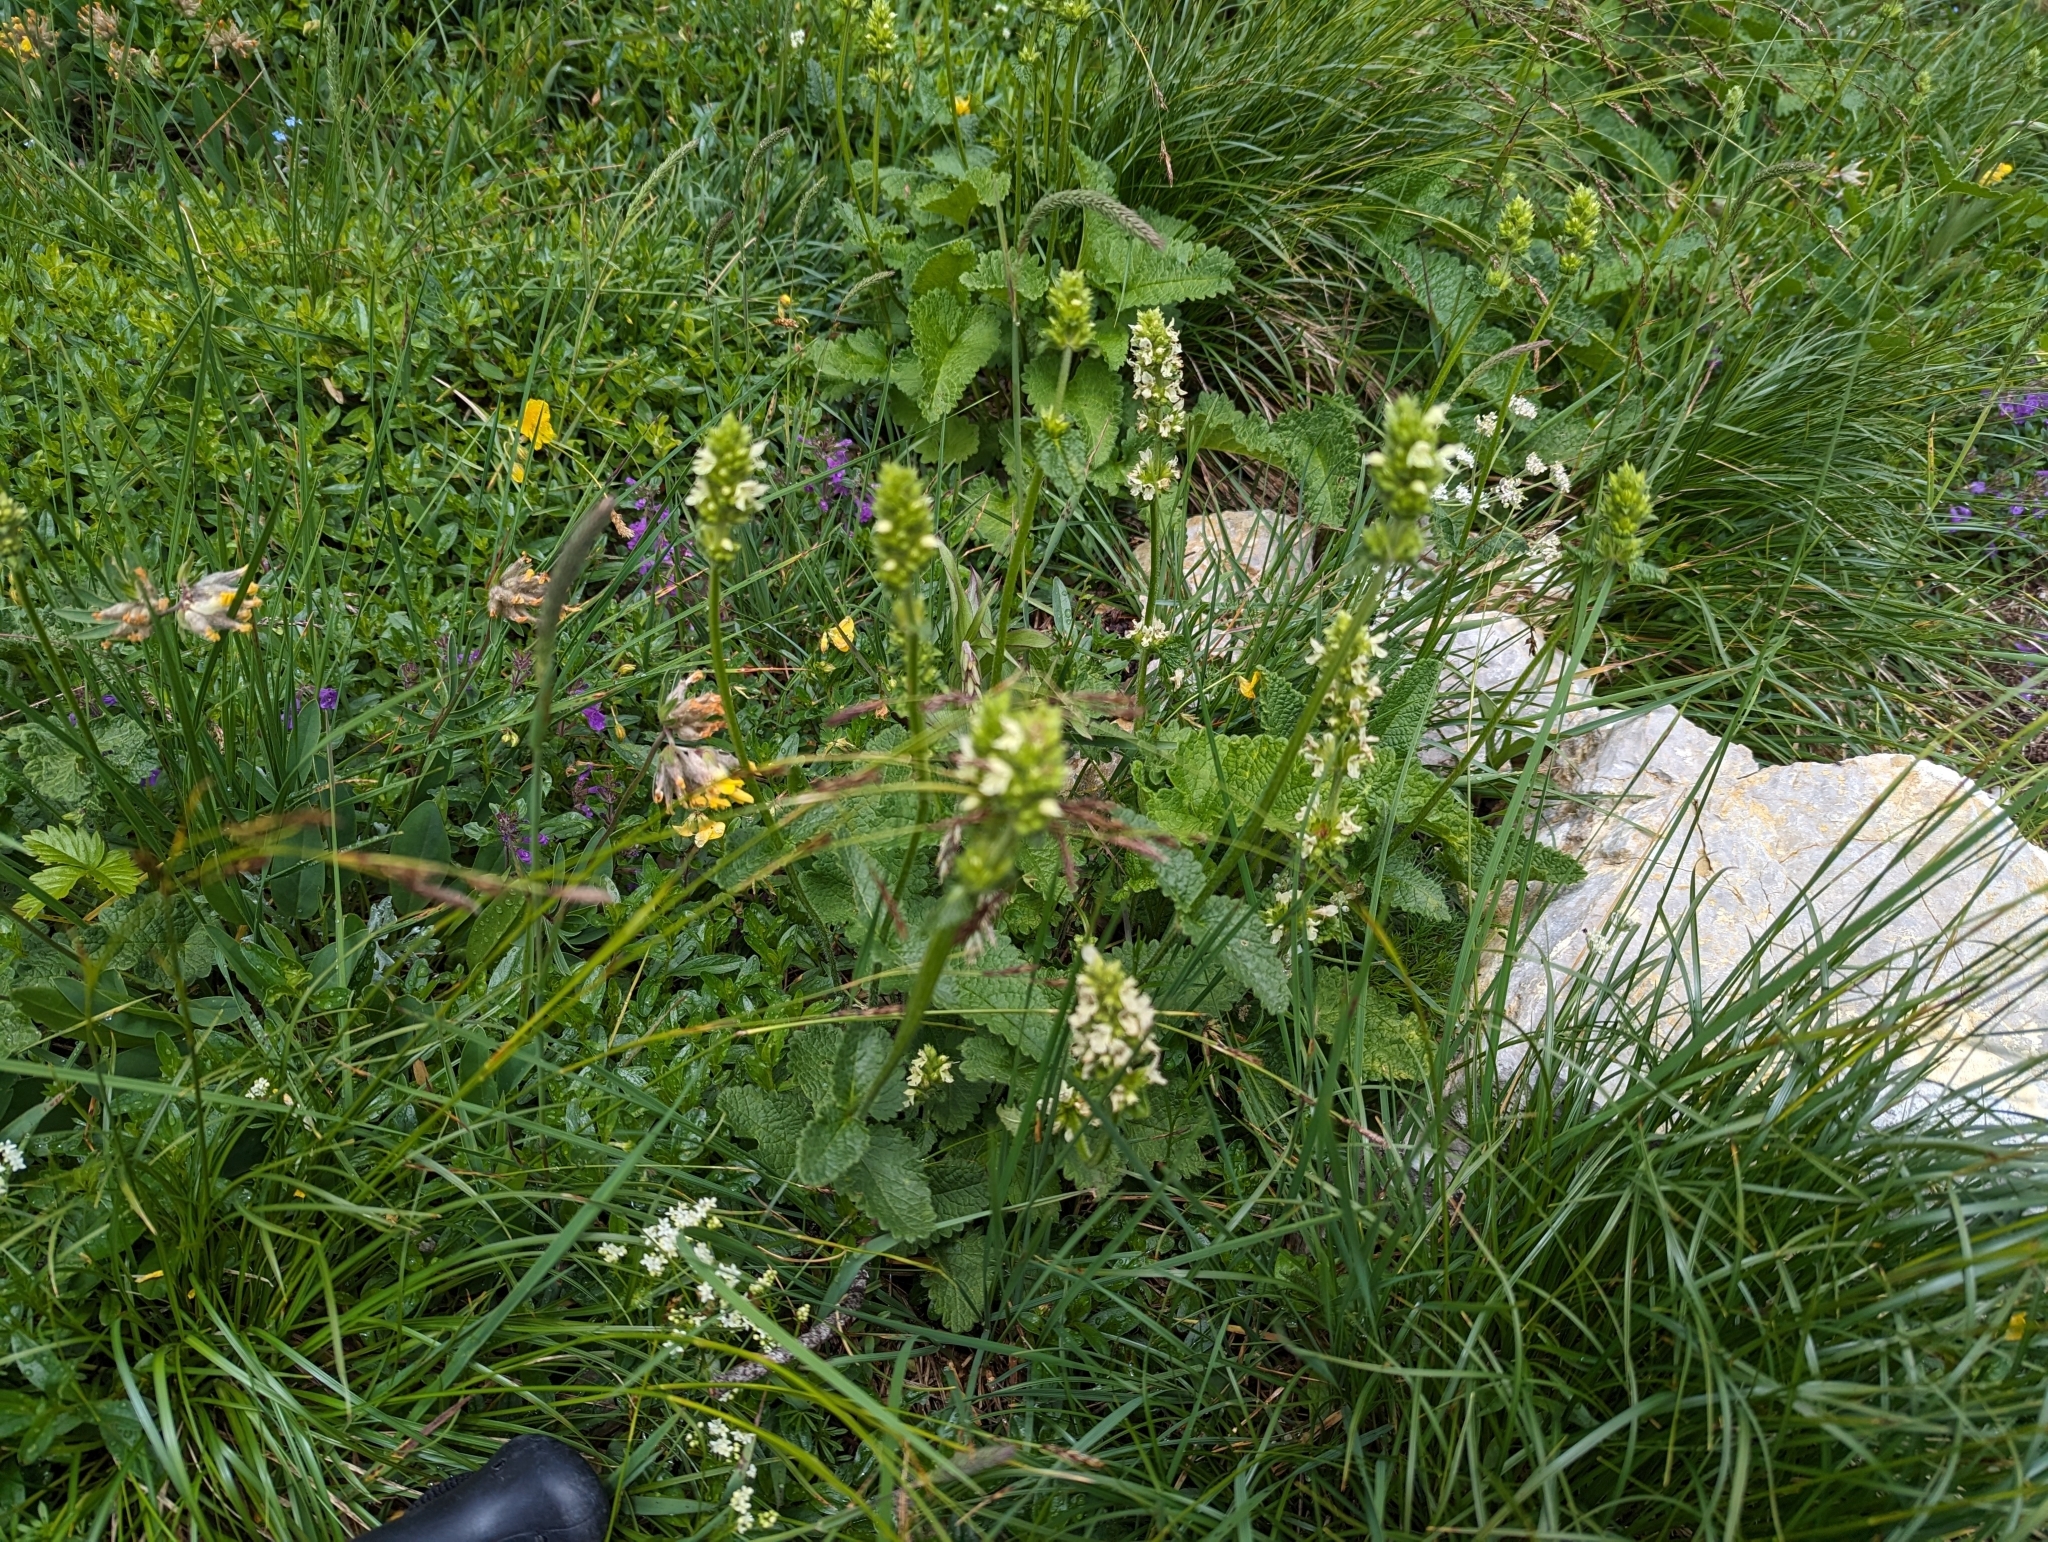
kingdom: Plantae
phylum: Tracheophyta
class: Magnoliopsida
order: Lamiales
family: Lamiaceae
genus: Betonica
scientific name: Betonica alopecuros
